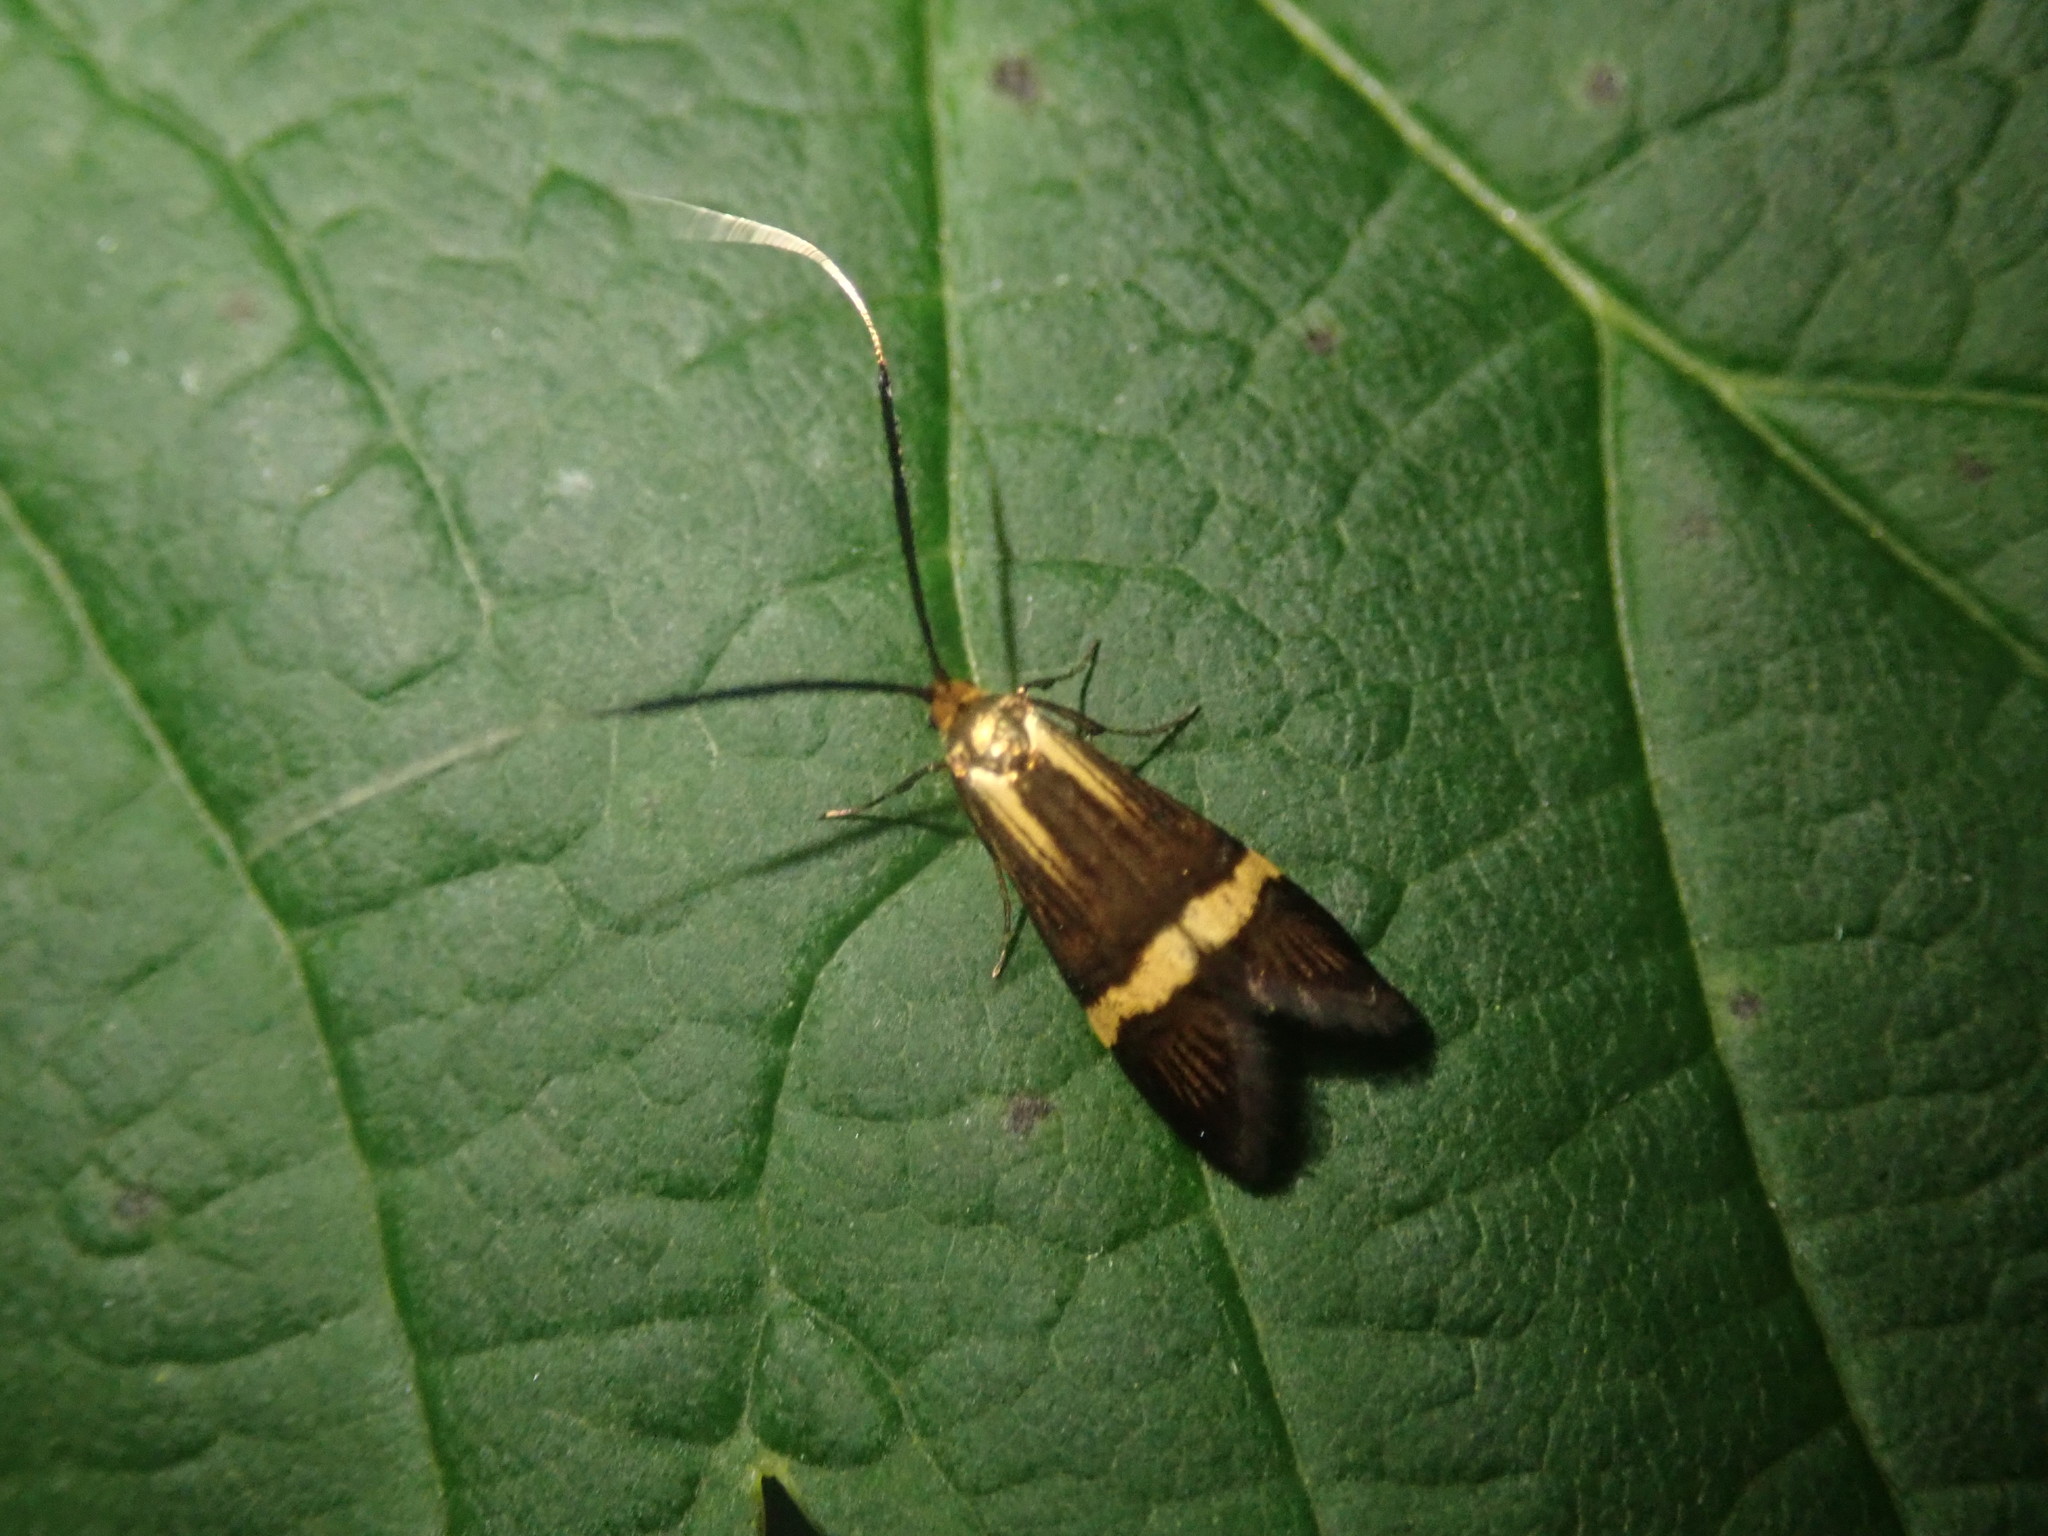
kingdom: Animalia
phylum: Arthropoda
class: Insecta
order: Lepidoptera
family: Adelidae
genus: Nemophora
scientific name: Nemophora degeerella
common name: Yellow-barred long-horn
